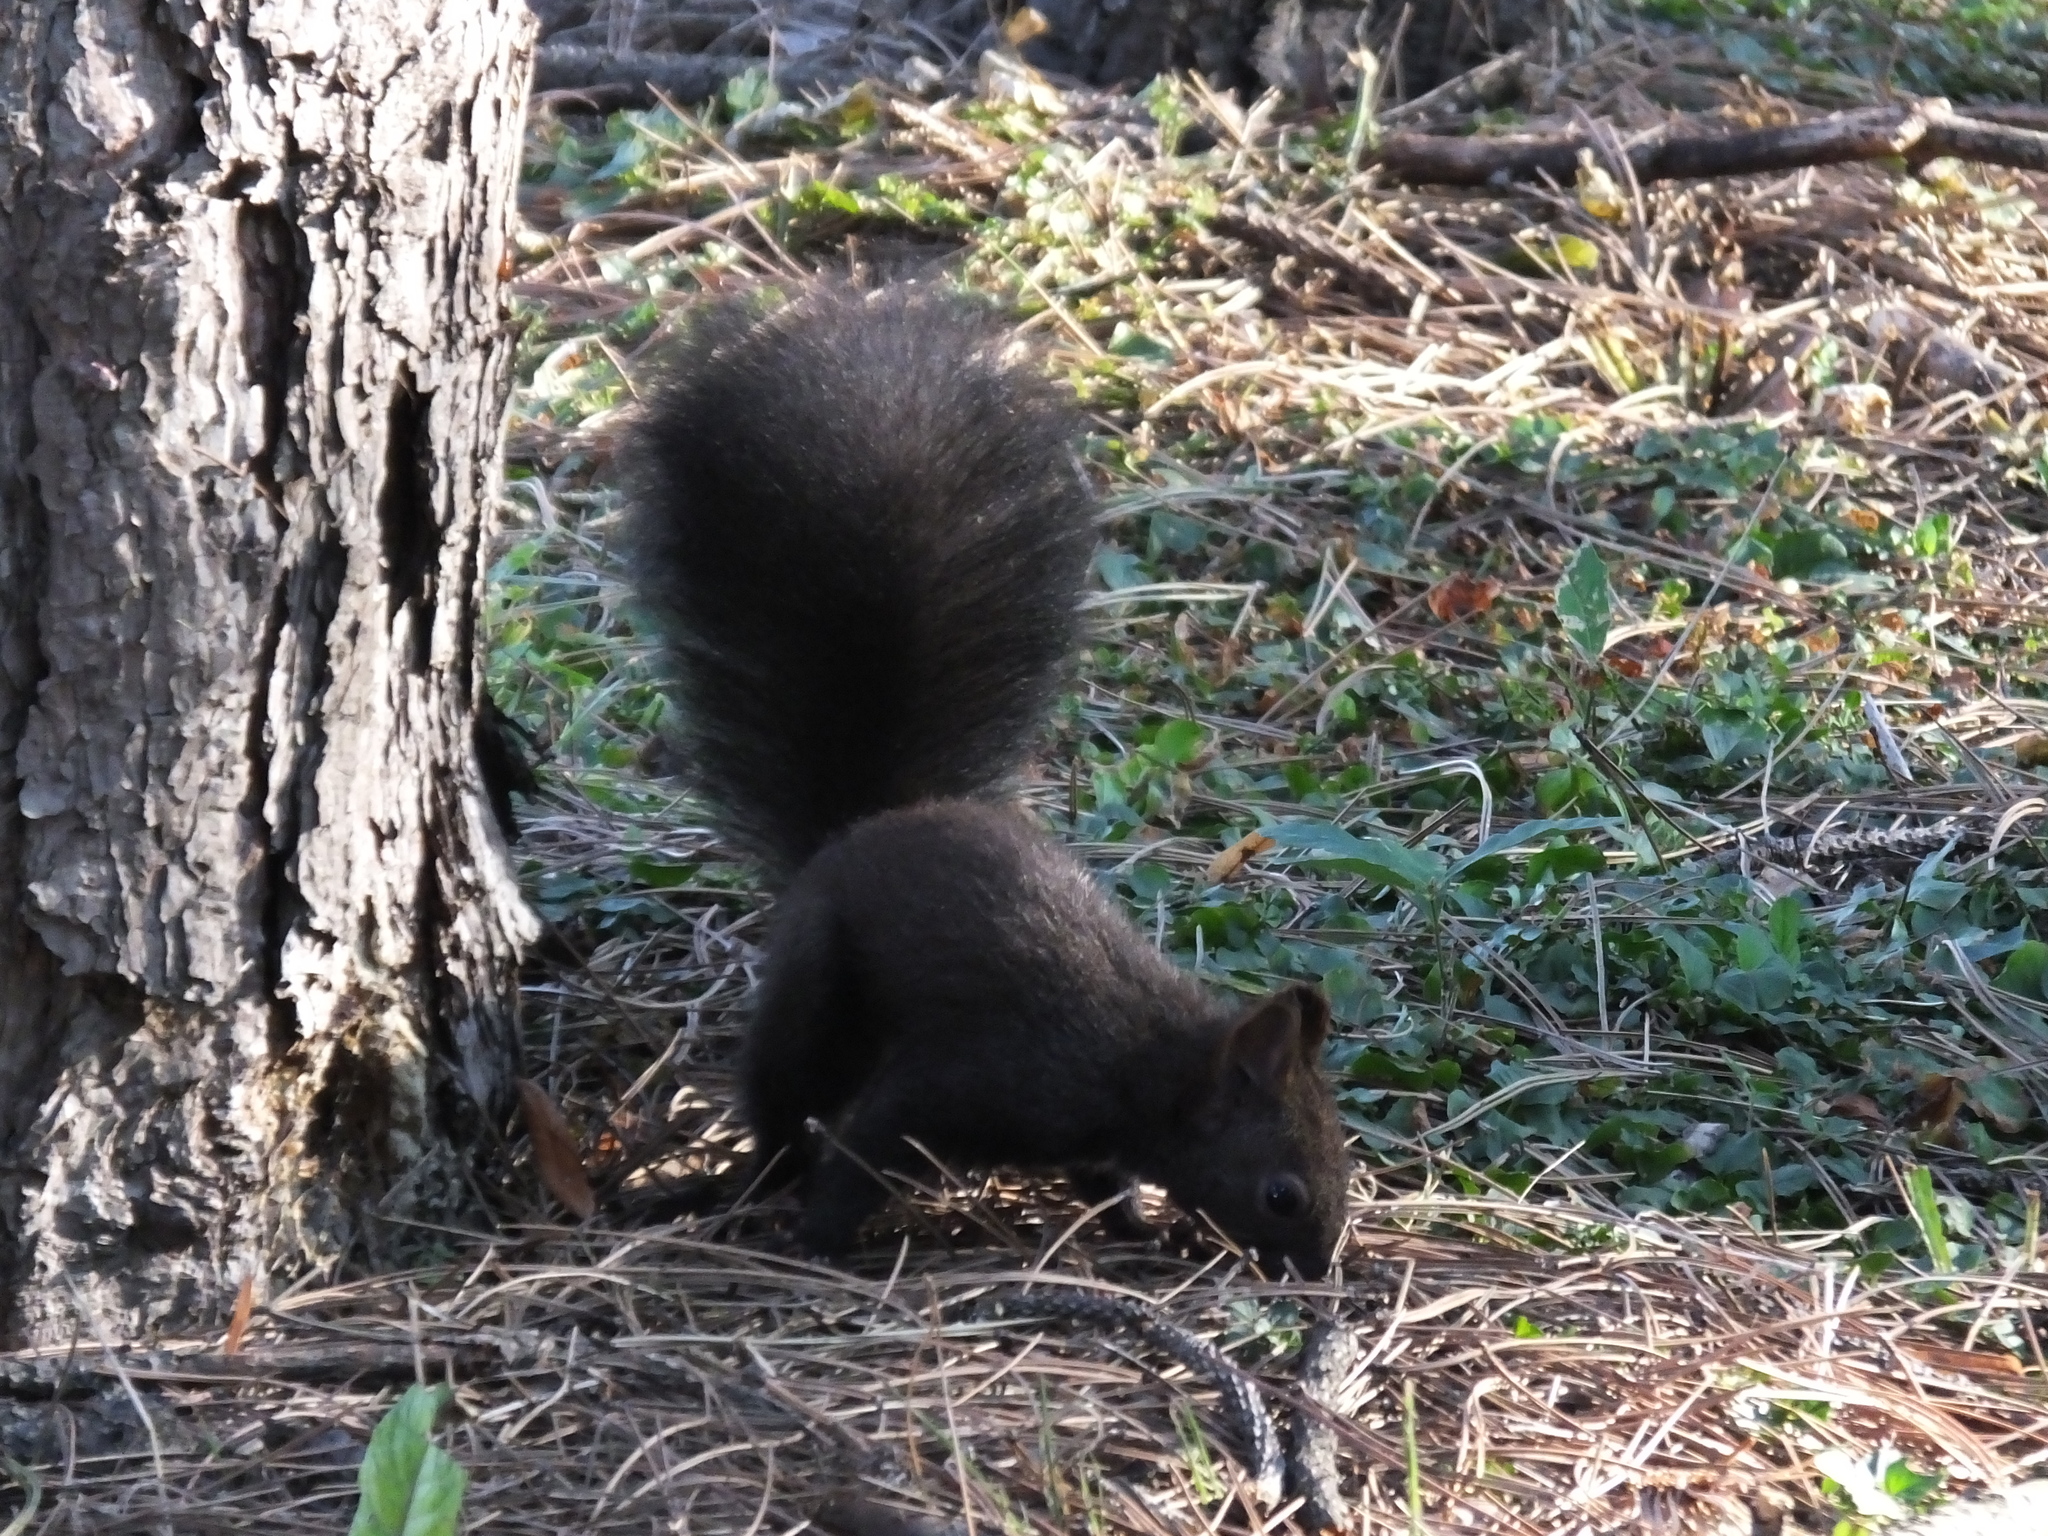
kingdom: Animalia
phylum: Chordata
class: Mammalia
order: Rodentia
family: Sciuridae
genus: Sciurus
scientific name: Sciurus vulgaris
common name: Eurasian red squirrel
